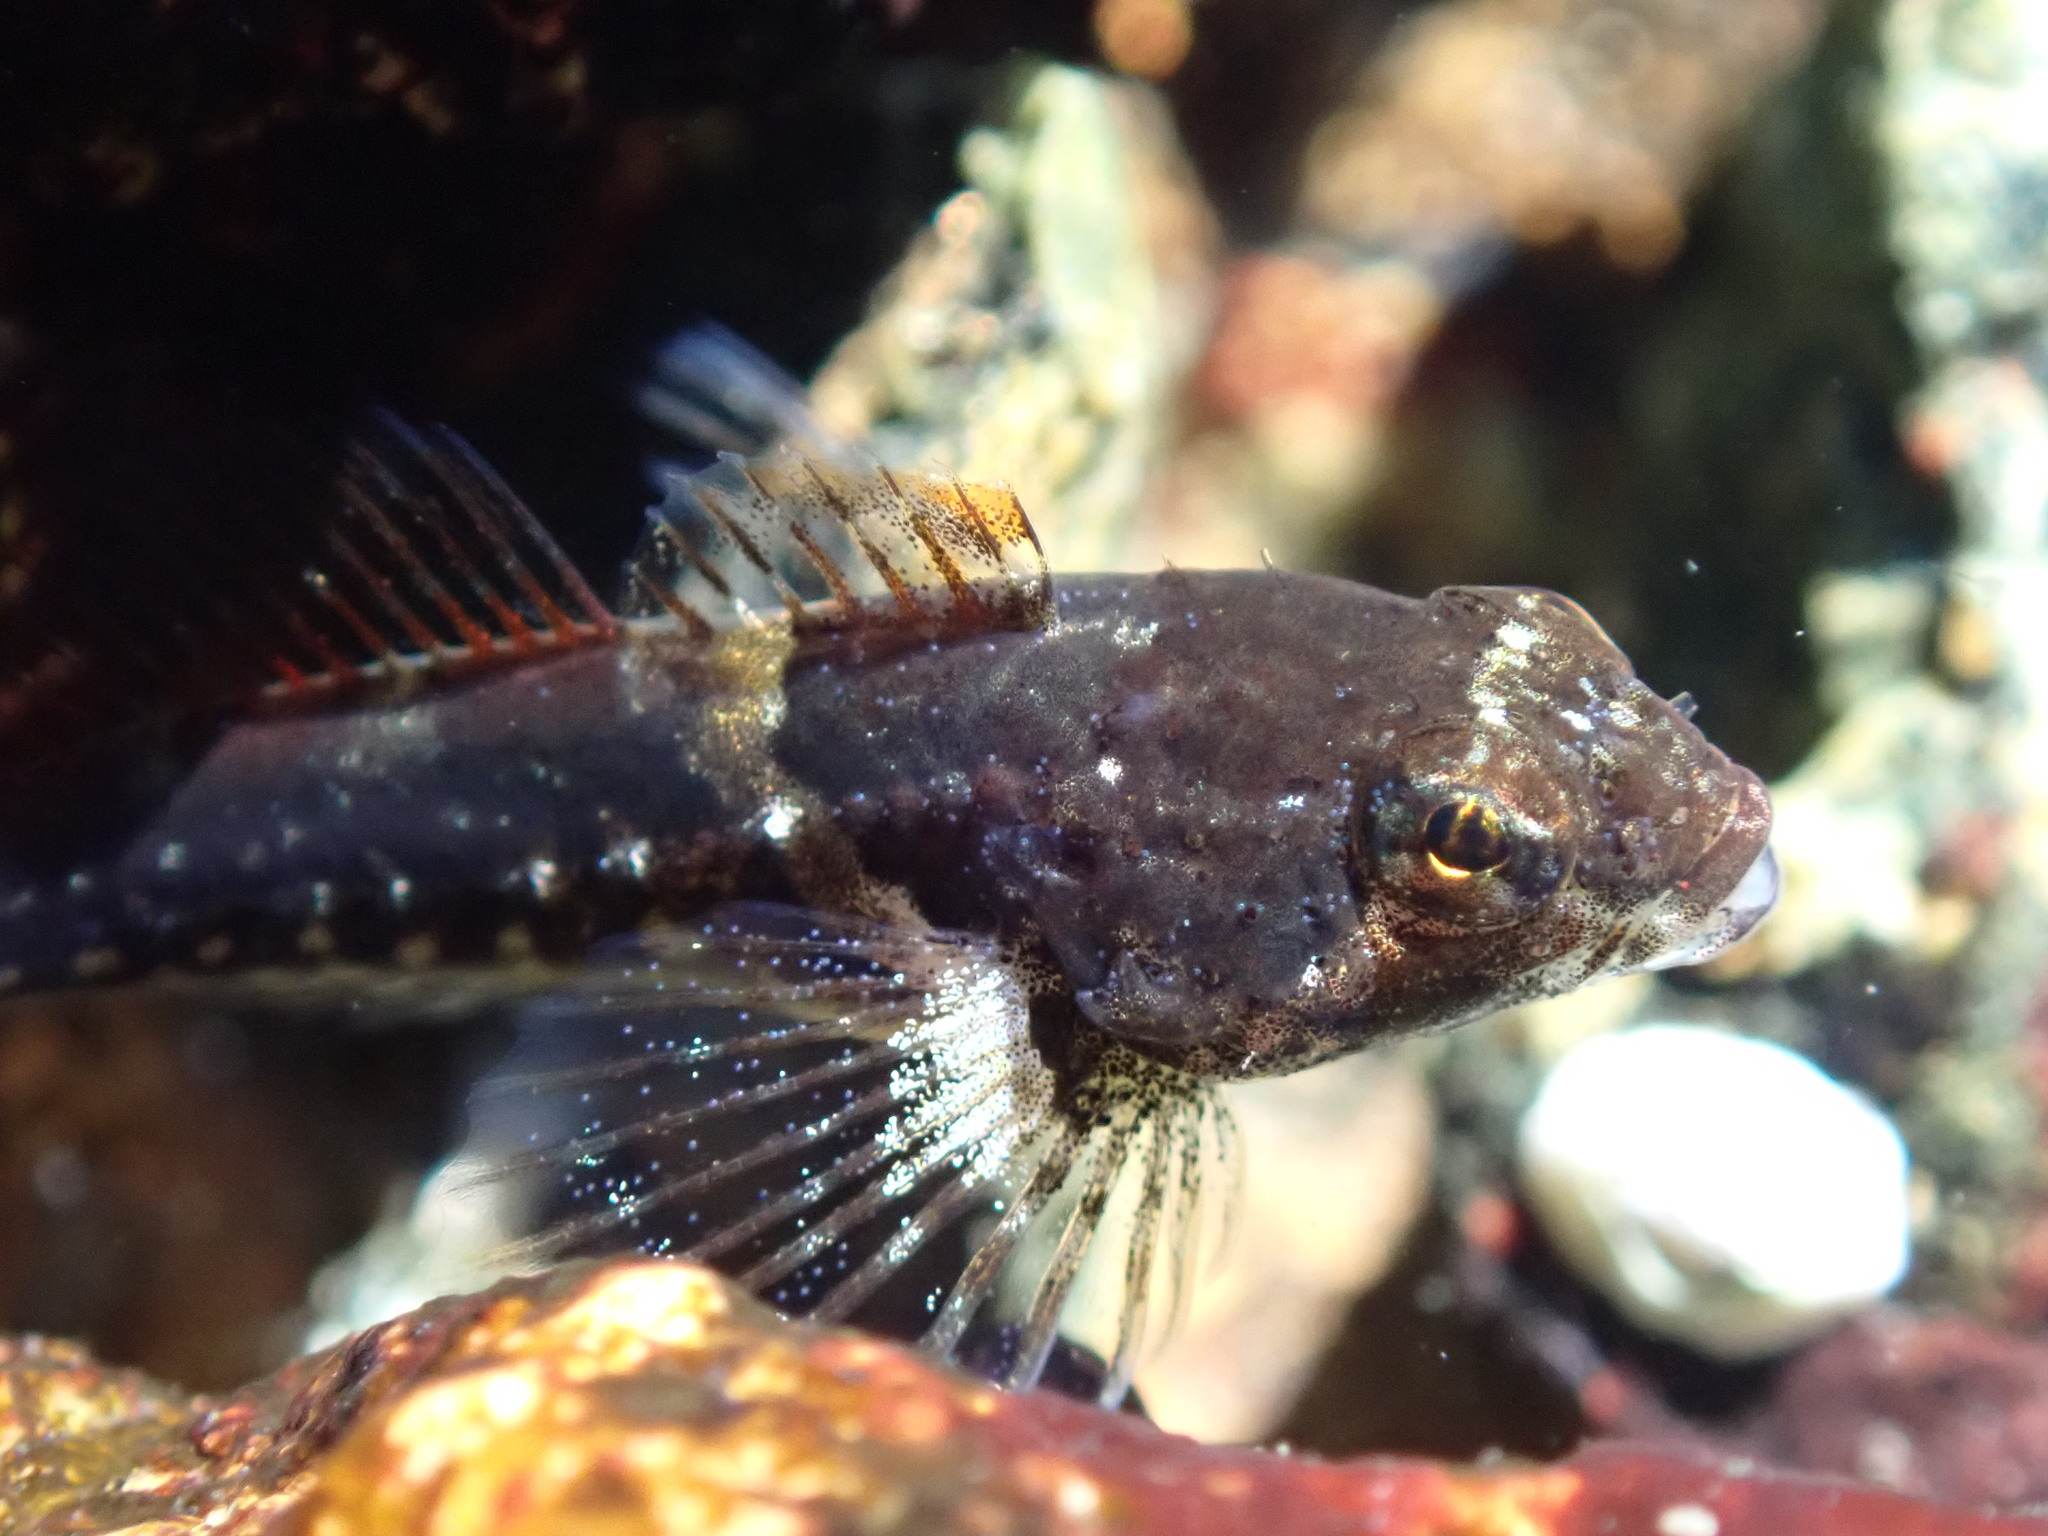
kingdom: Animalia
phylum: Chordata
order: Scorpaeniformes
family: Cottidae
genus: Oligocottus
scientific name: Oligocottus maculosus
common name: Tidepool sculpin
